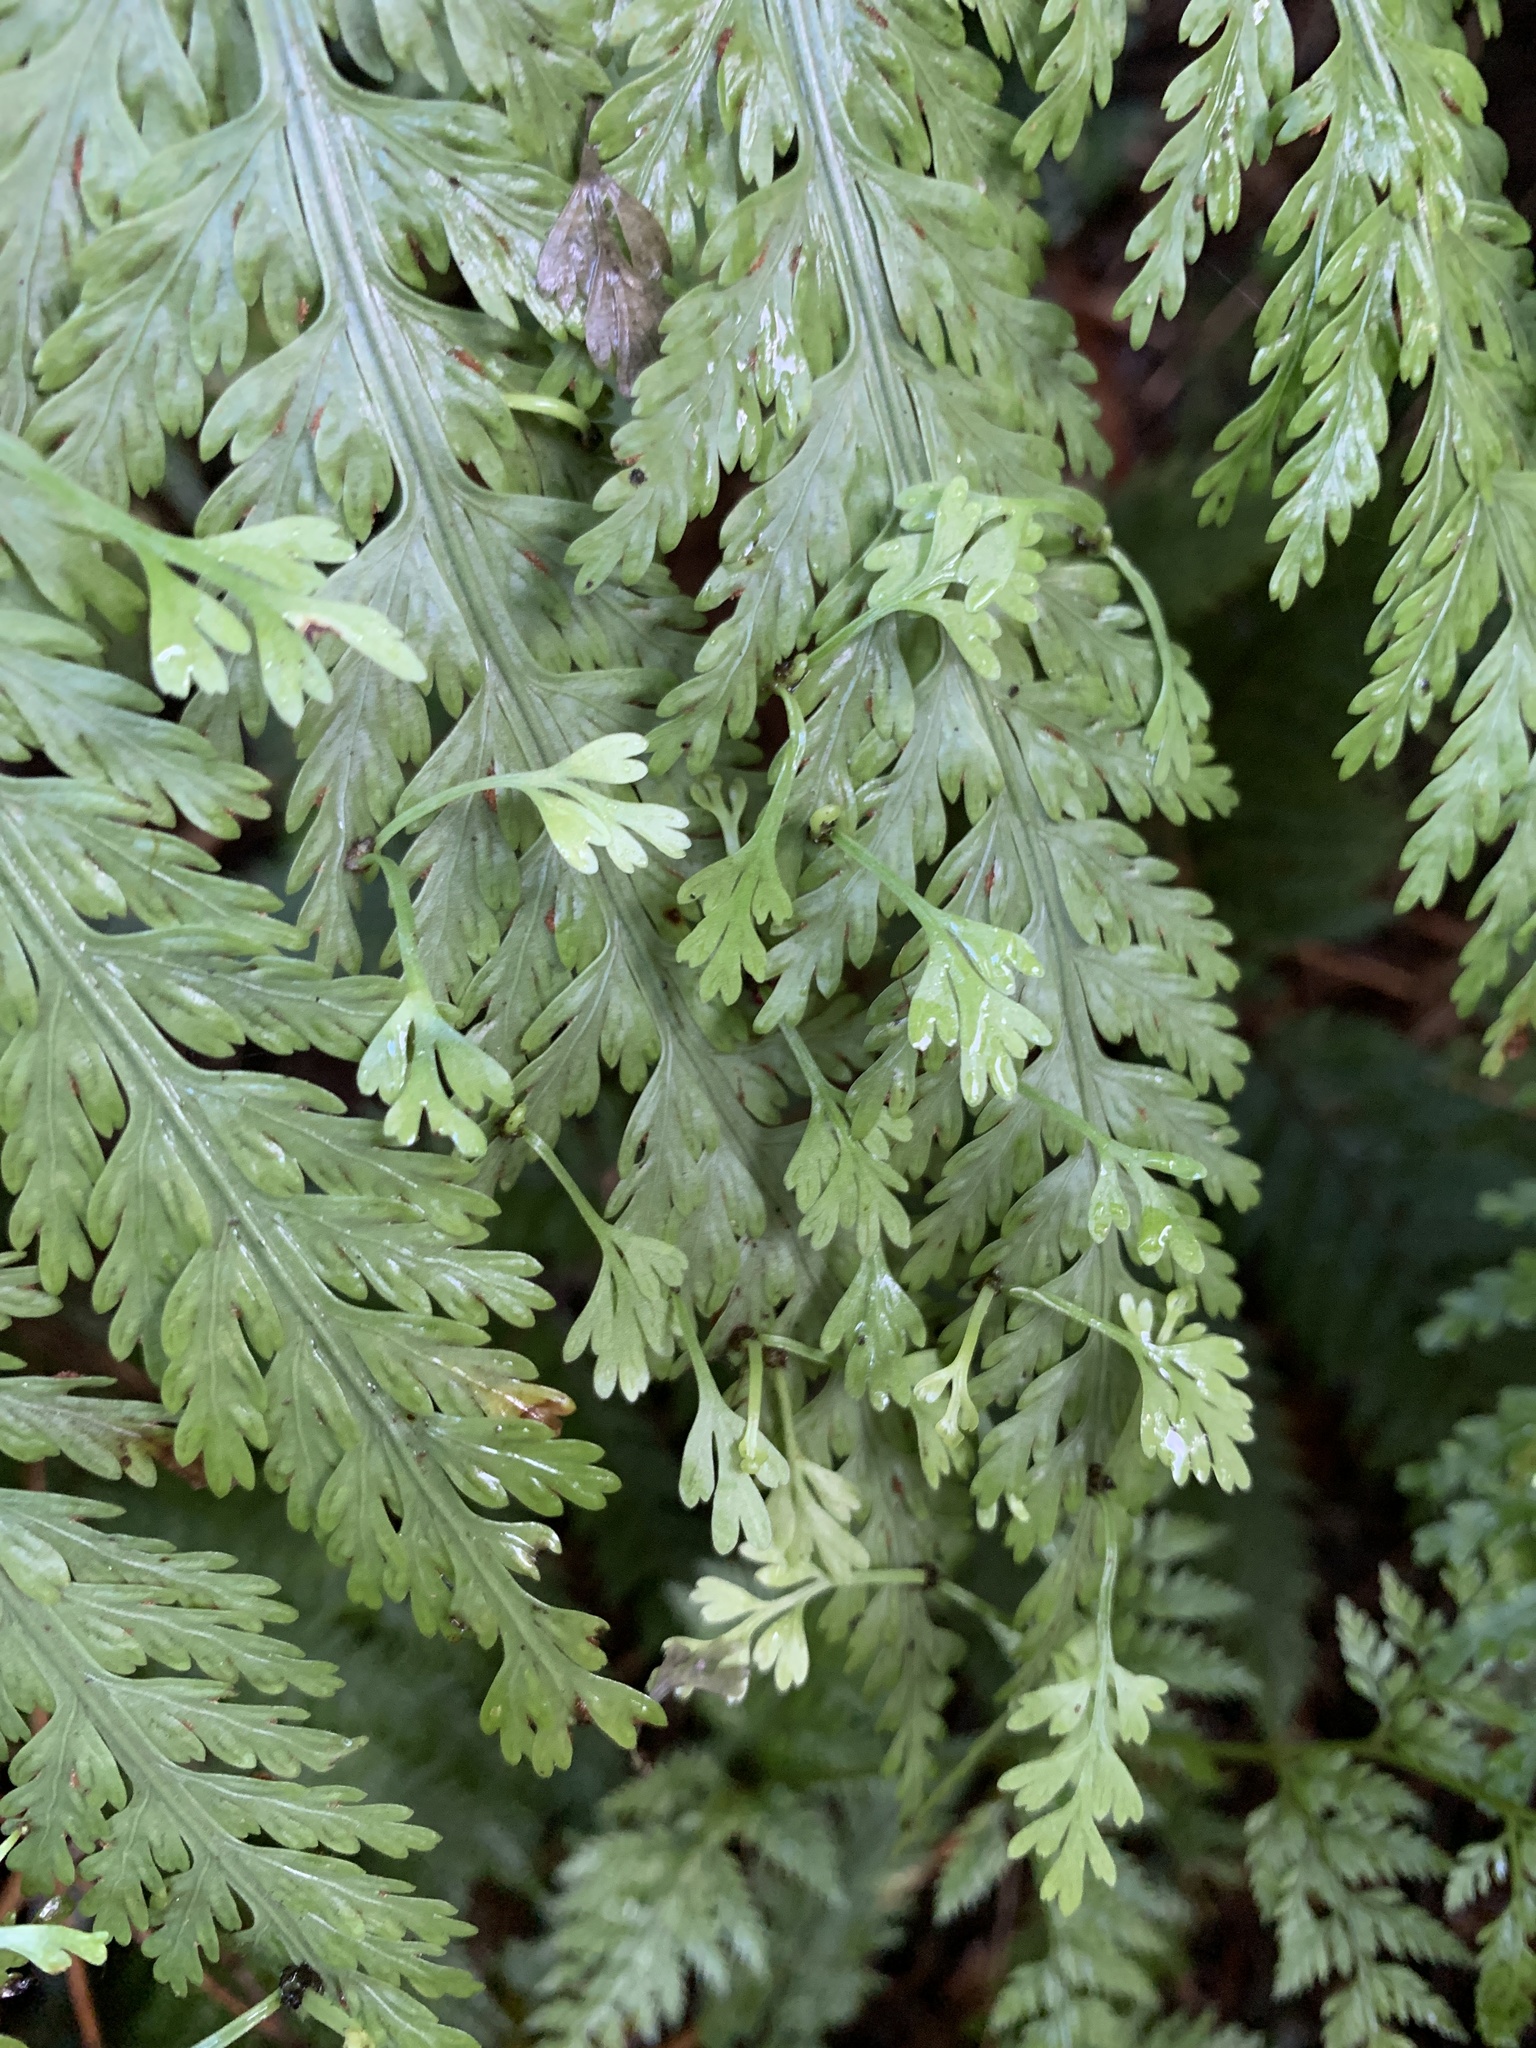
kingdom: Plantae
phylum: Tracheophyta
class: Polypodiopsida
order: Polypodiales
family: Aspleniaceae
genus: Asplenium
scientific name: Asplenium bulbiferum
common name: Mother fern
